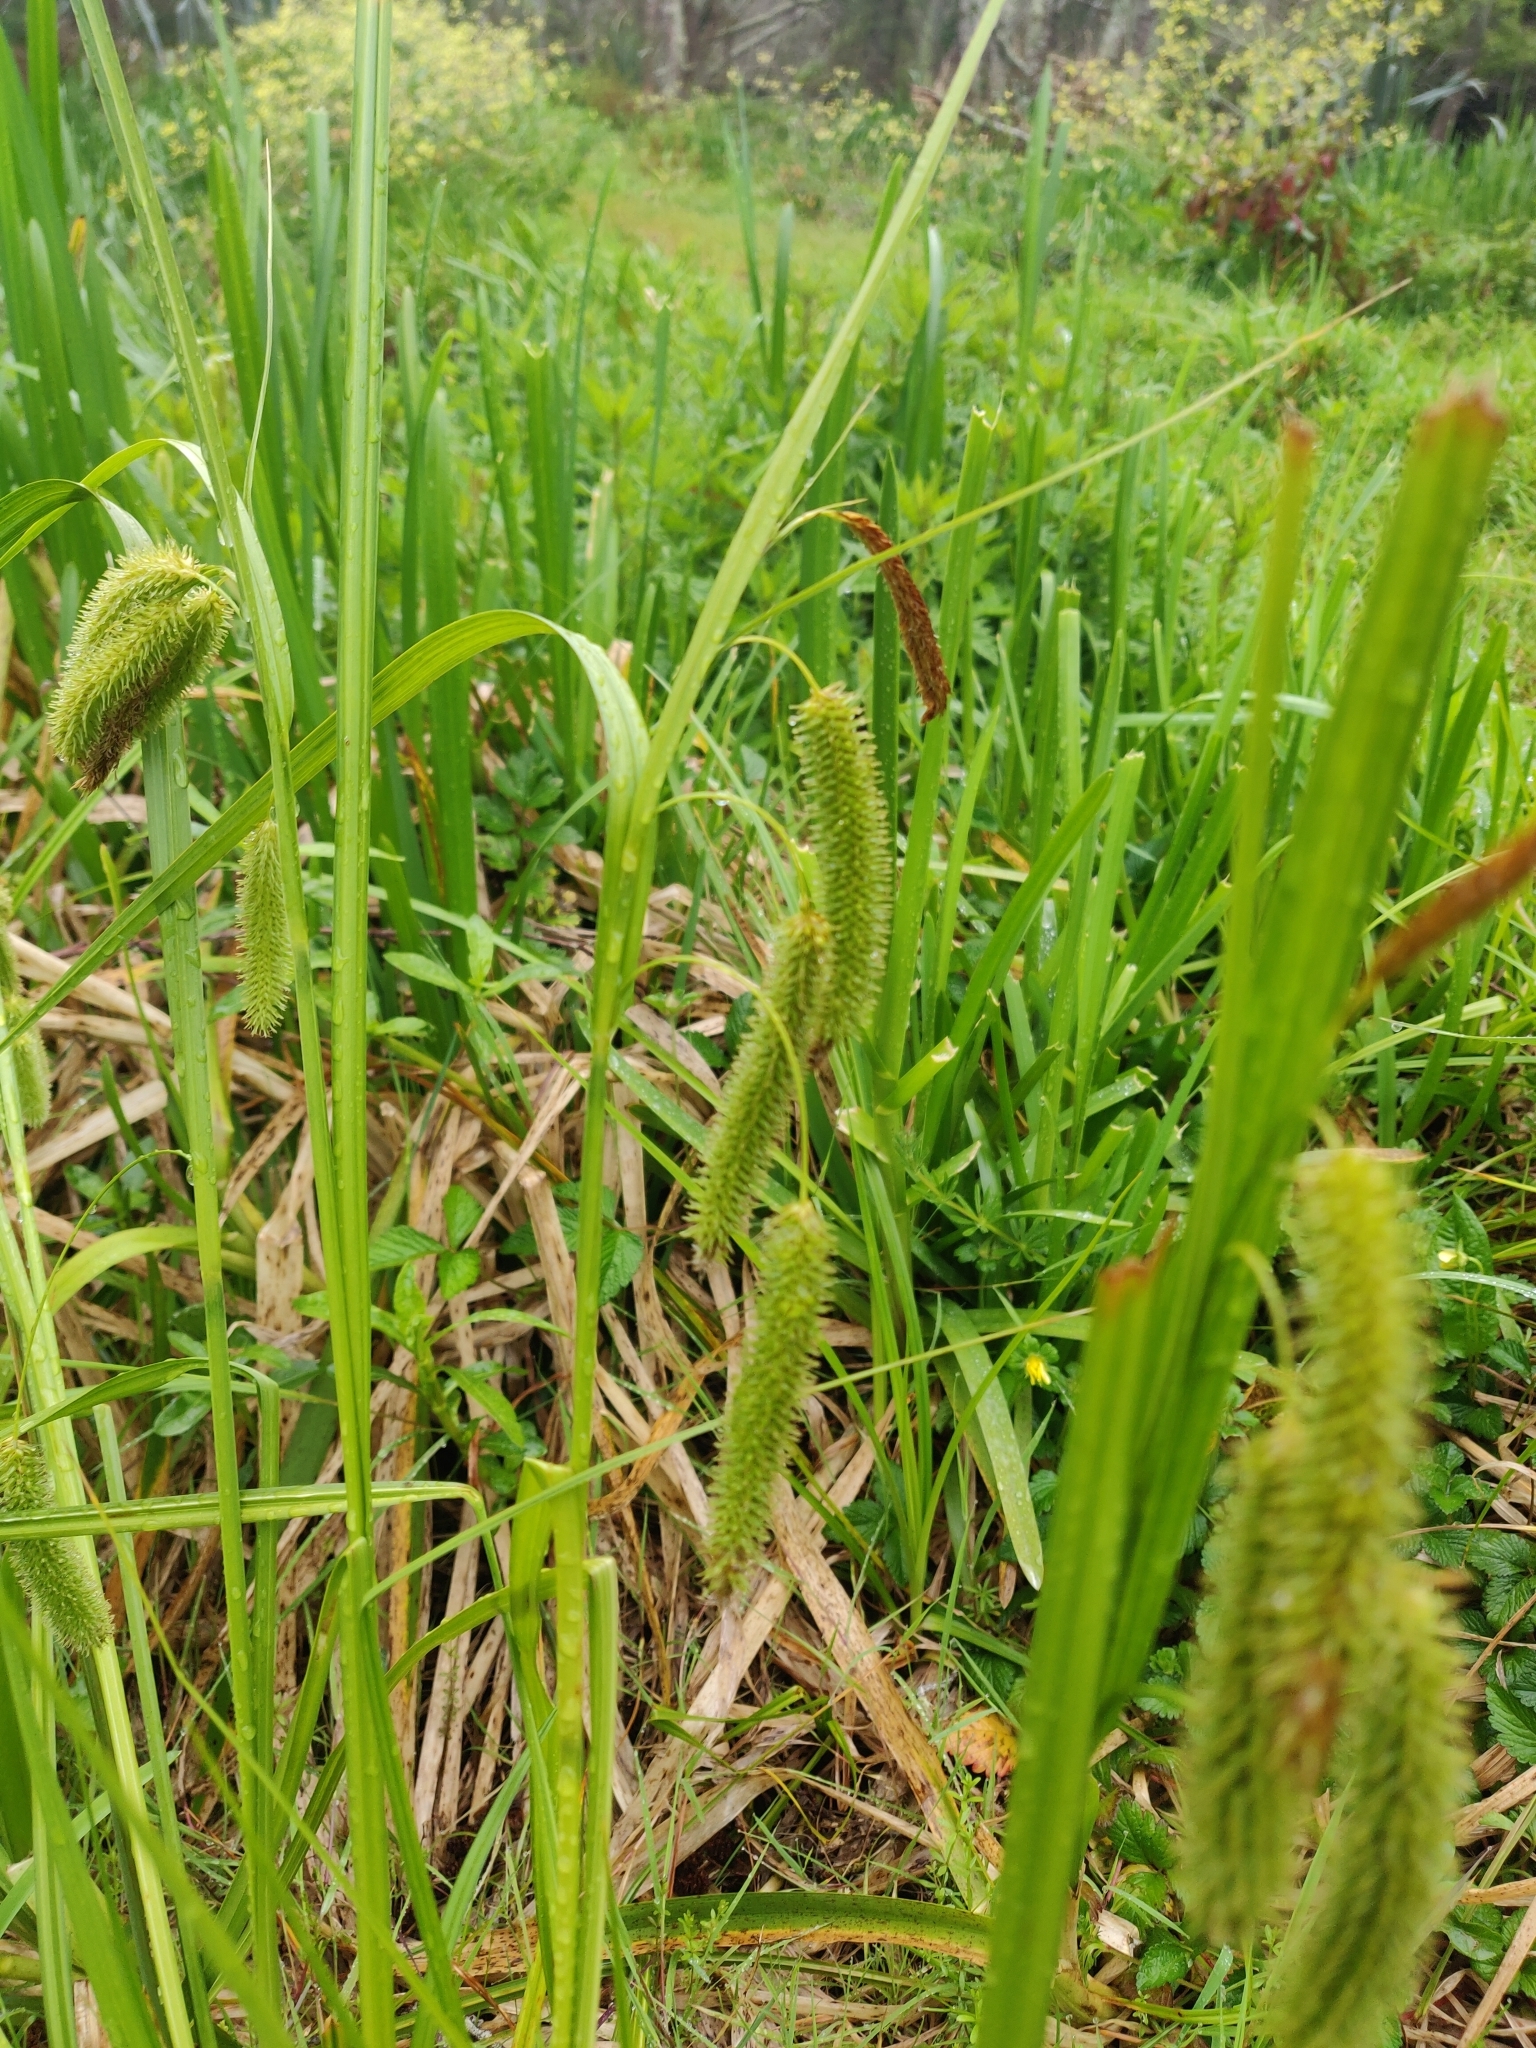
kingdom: Plantae
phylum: Tracheophyta
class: Liliopsida
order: Poales
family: Cyperaceae
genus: Carex
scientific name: Carex fascicularis
